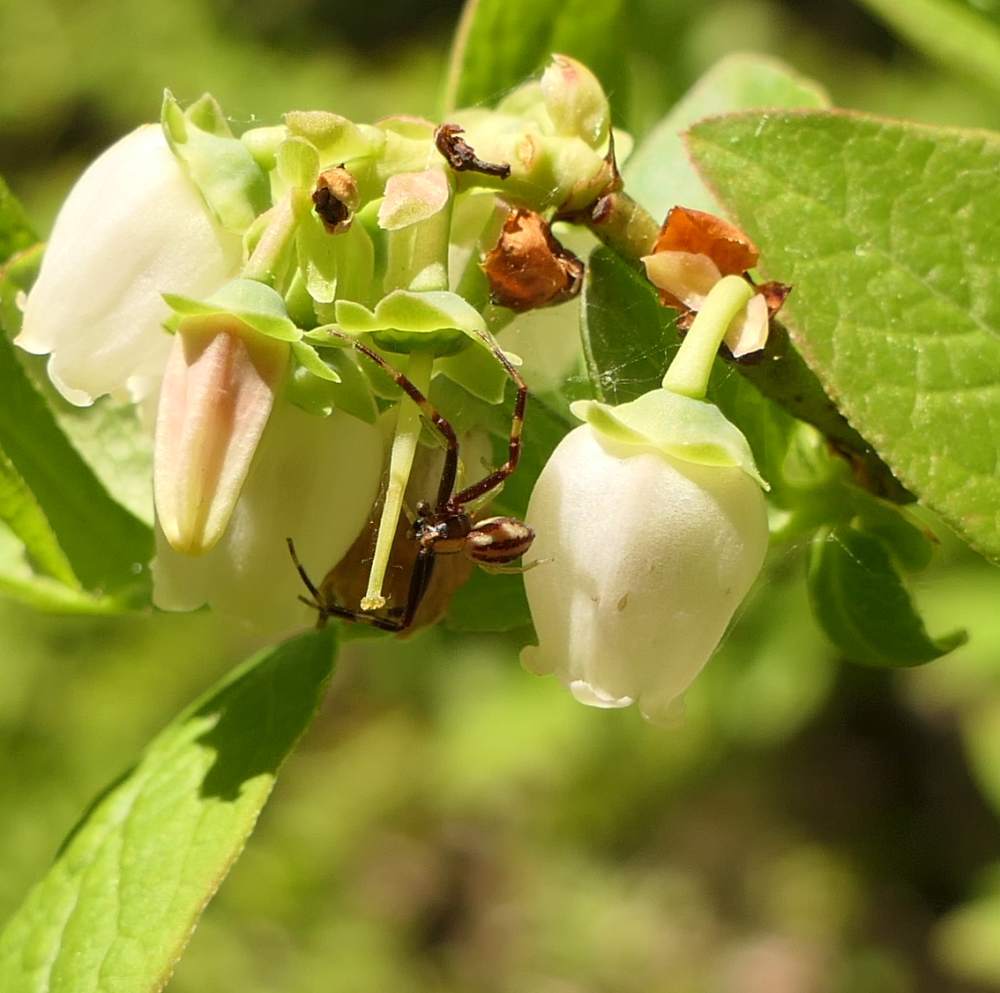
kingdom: Animalia
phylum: Arthropoda
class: Arachnida
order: Araneae
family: Thomisidae
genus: Misumena
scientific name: Misumena vatia
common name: Goldenrod crab spider
